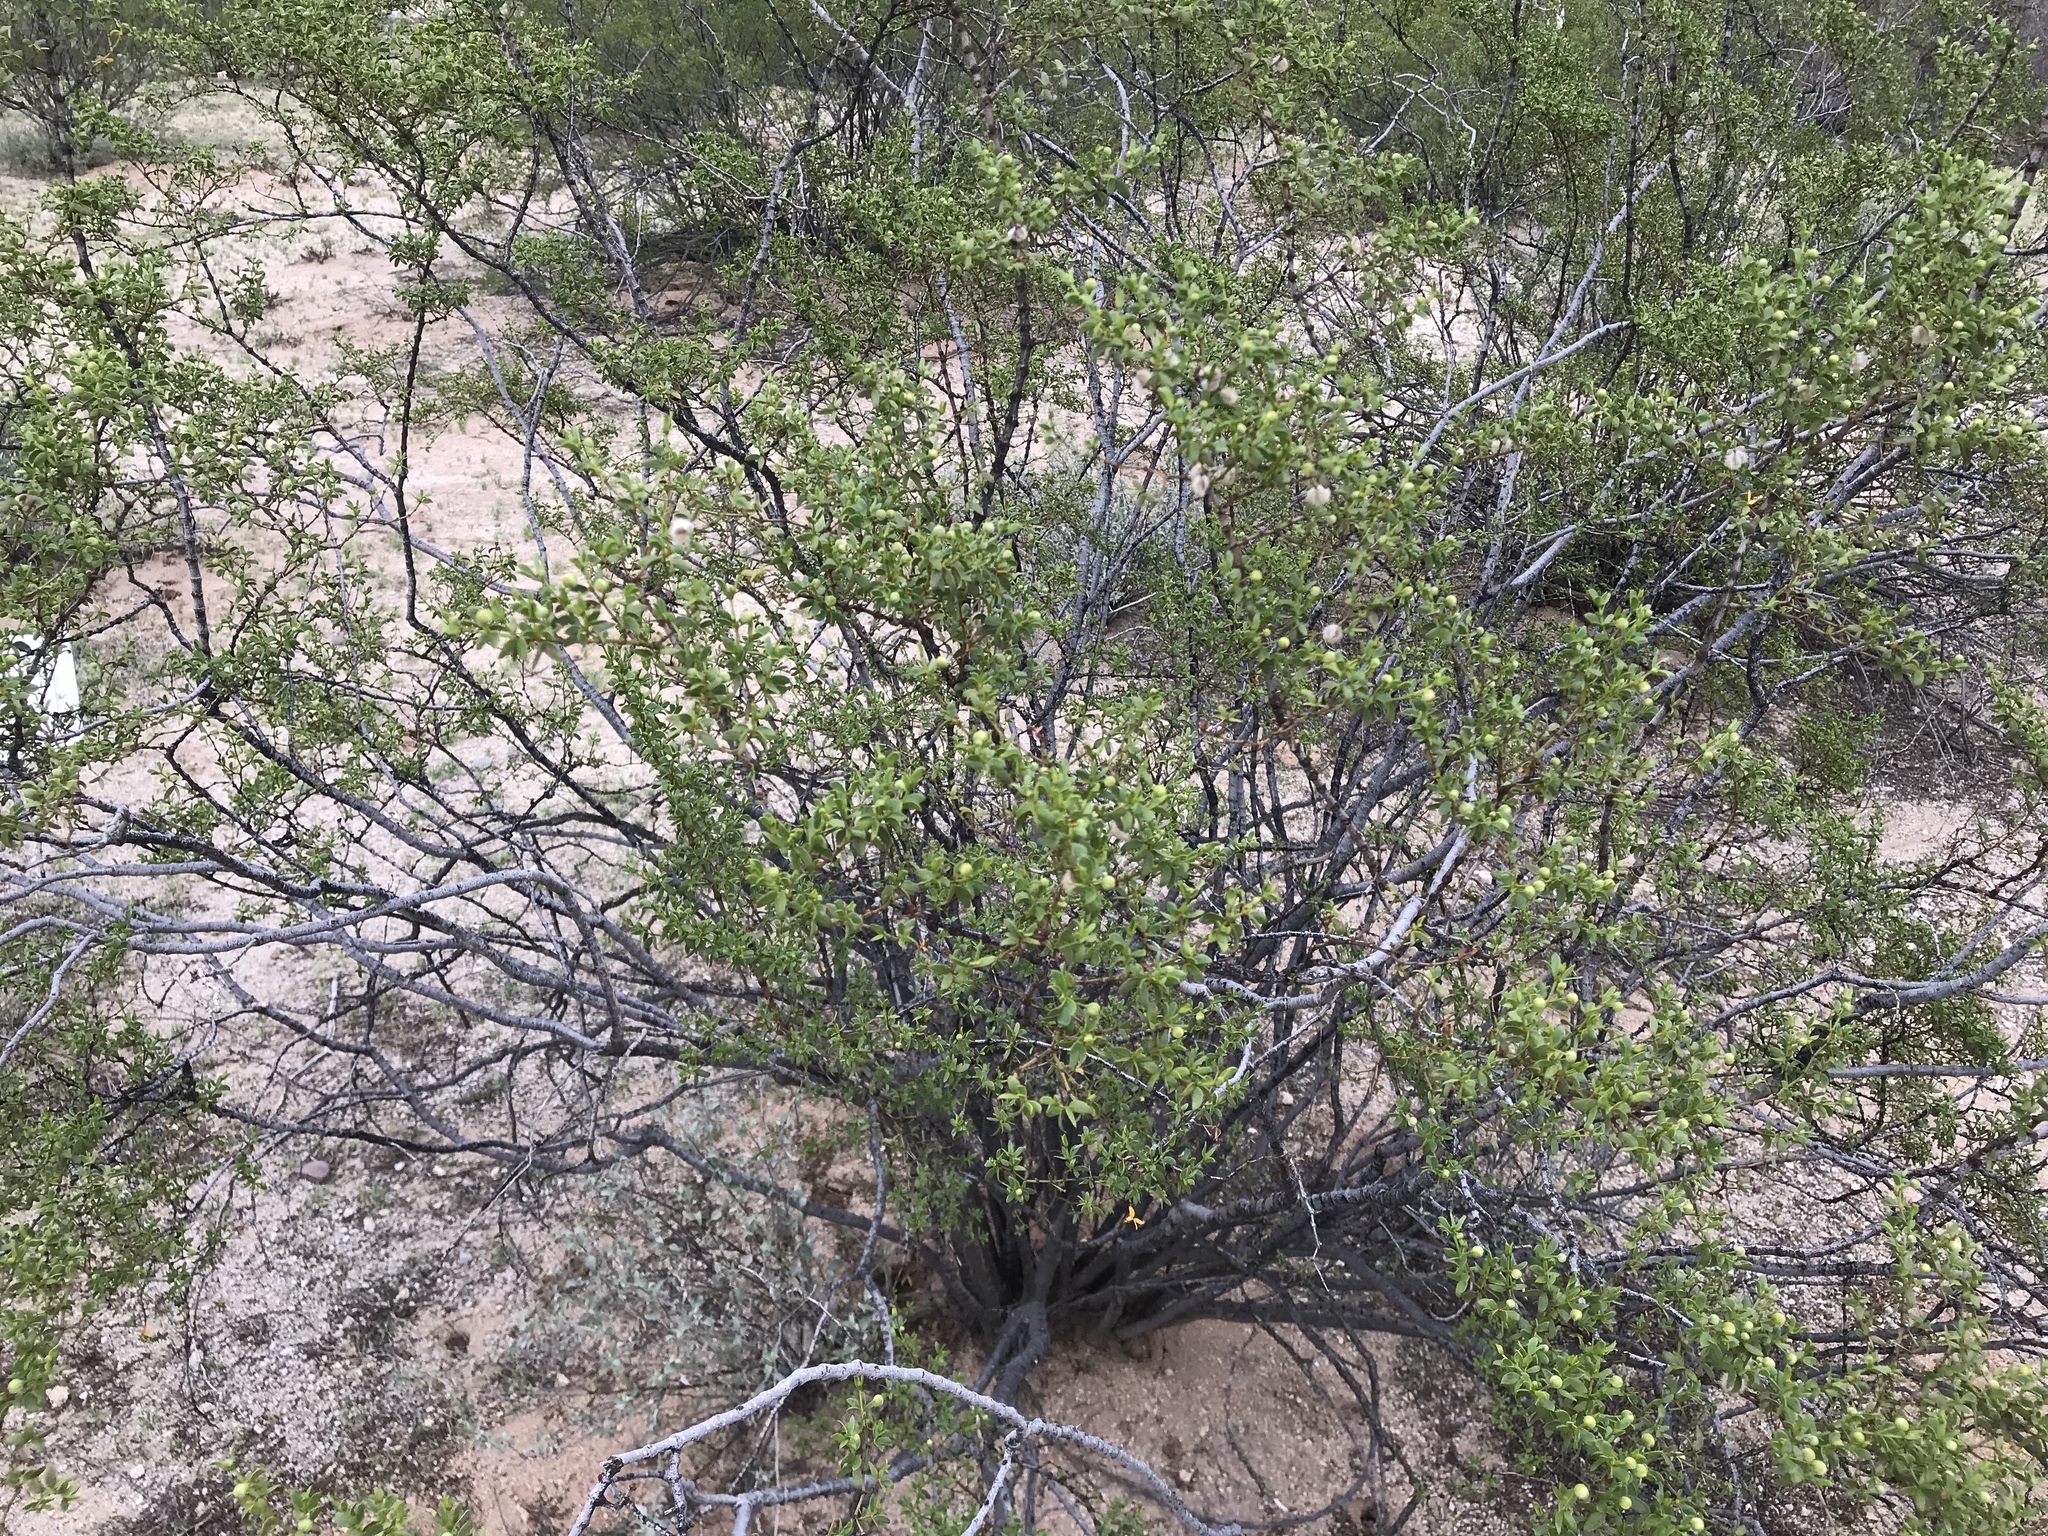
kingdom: Plantae
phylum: Tracheophyta
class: Magnoliopsida
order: Zygophyllales
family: Zygophyllaceae
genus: Larrea
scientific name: Larrea tridentata
